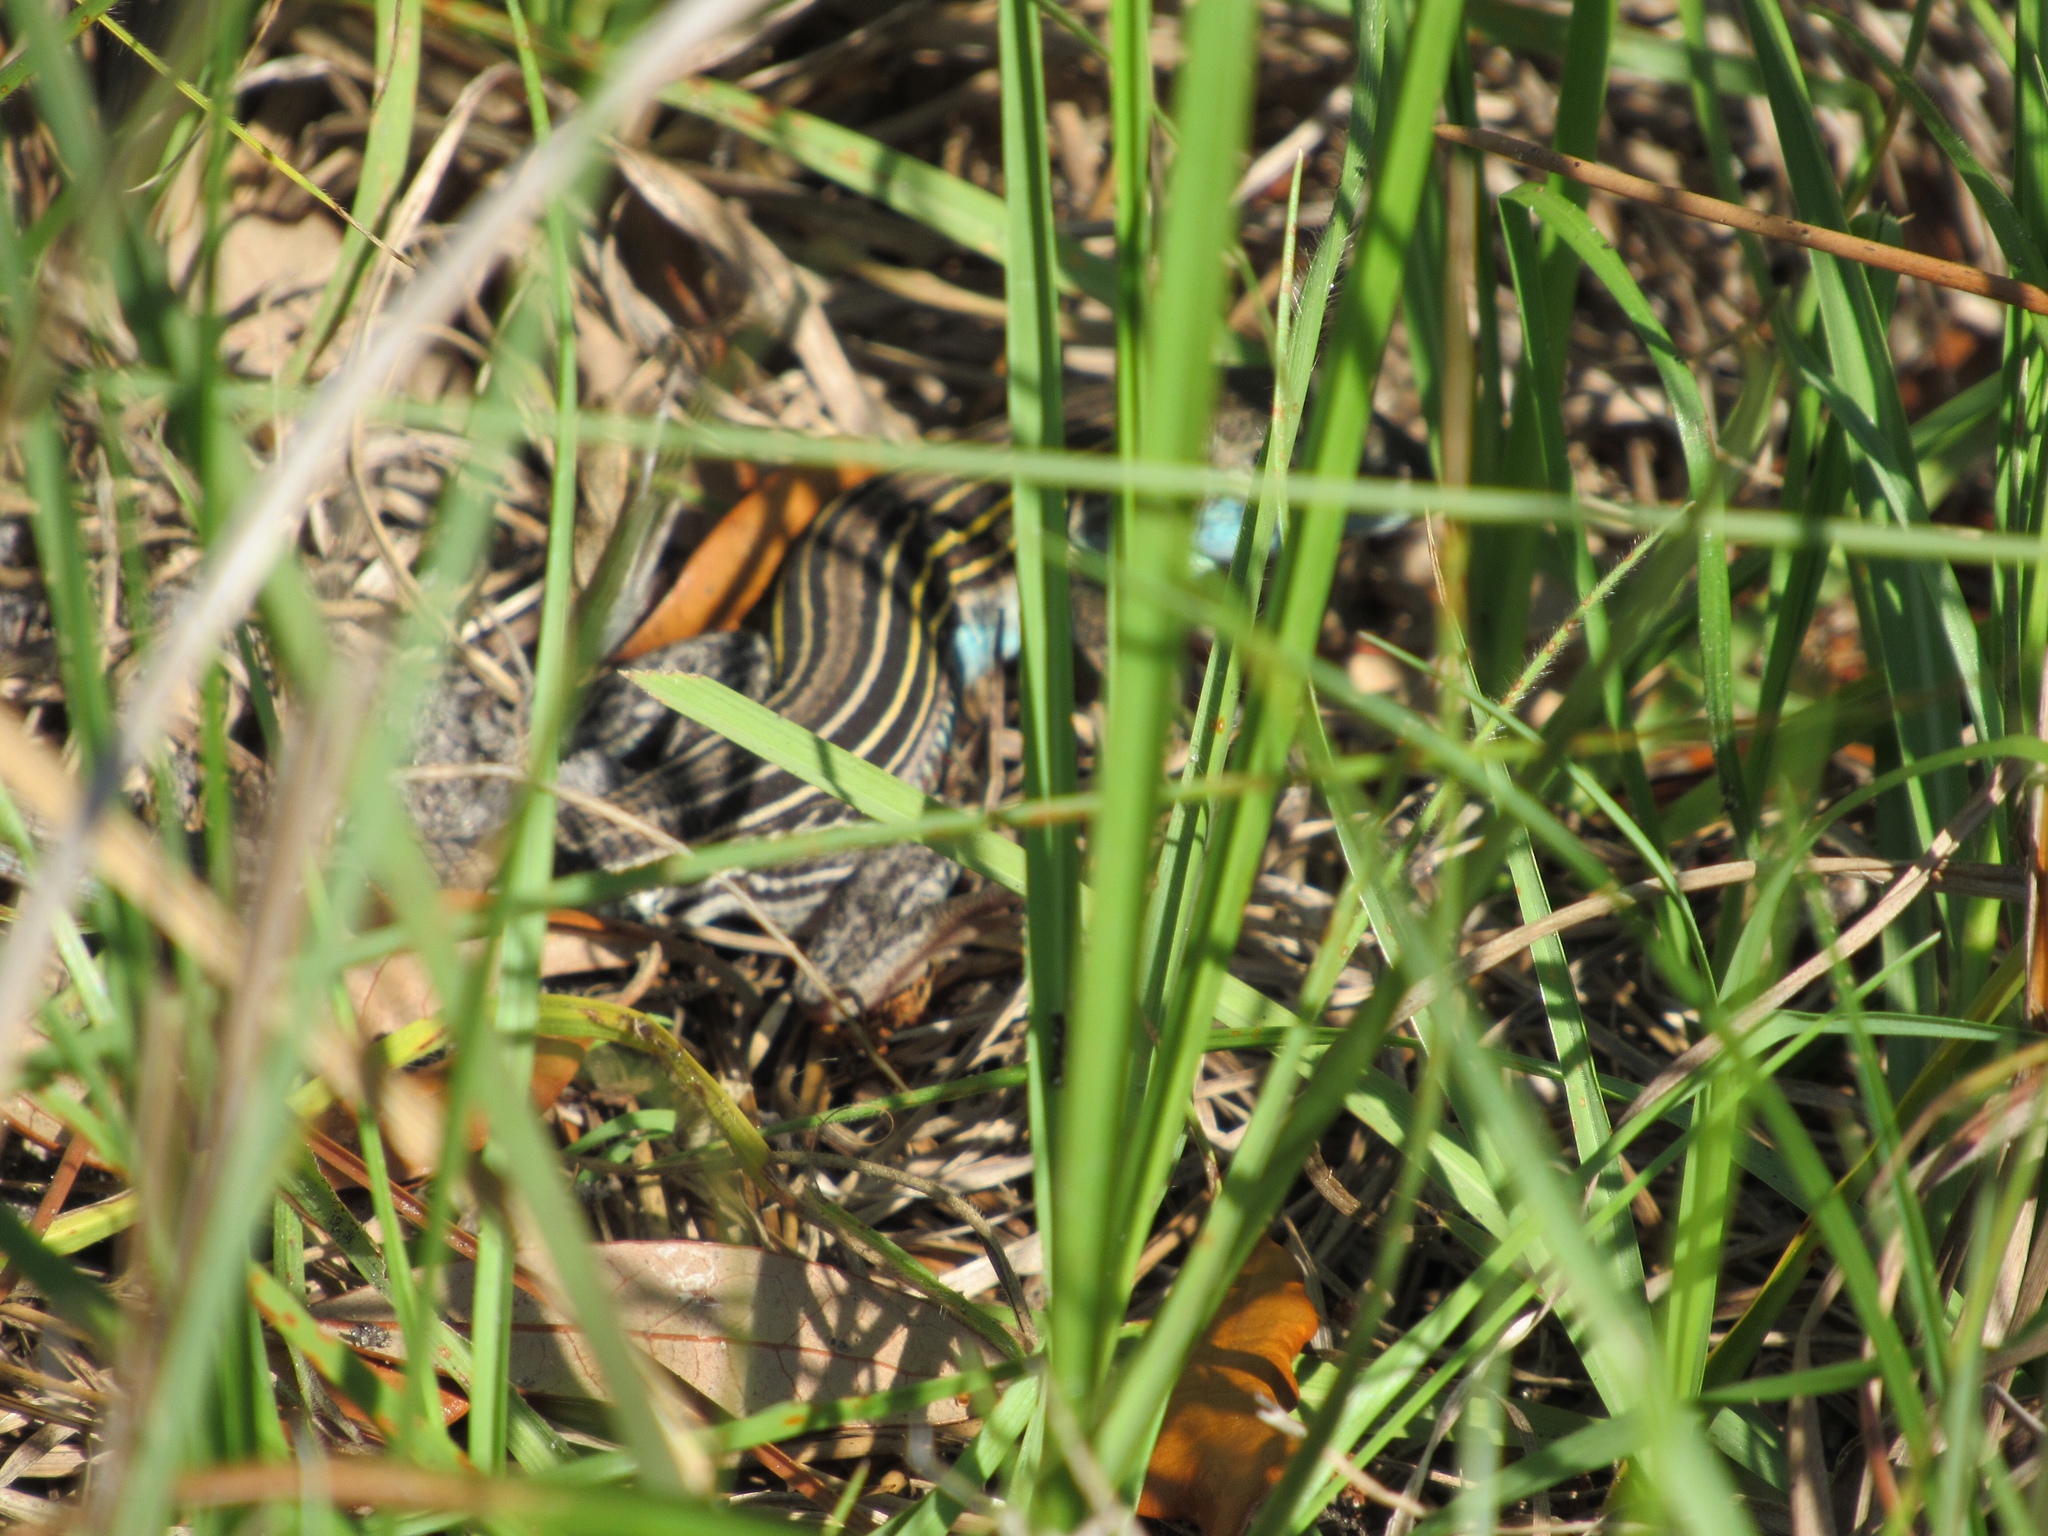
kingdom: Animalia
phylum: Chordata
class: Squamata
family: Teiidae
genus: Aspidoscelis
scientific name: Aspidoscelis sexlineatus
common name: Six-lined racerunner
